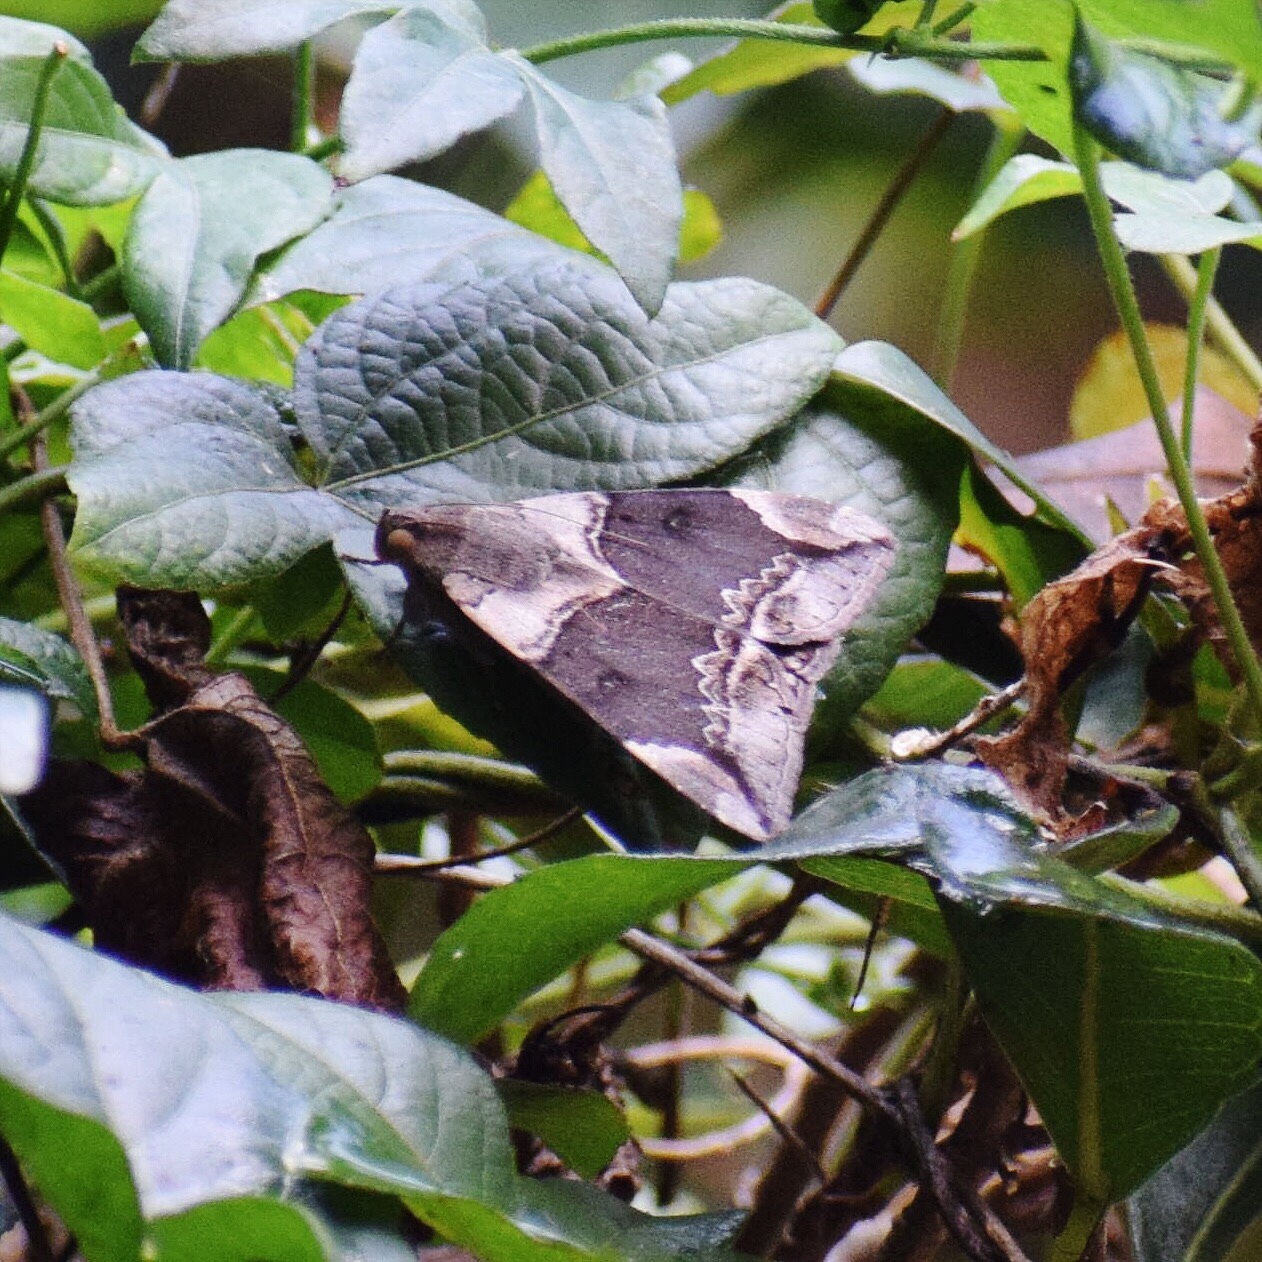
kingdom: Animalia
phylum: Arthropoda
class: Insecta
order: Lepidoptera
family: Erebidae
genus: Achaea
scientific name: Achaea lienardi
